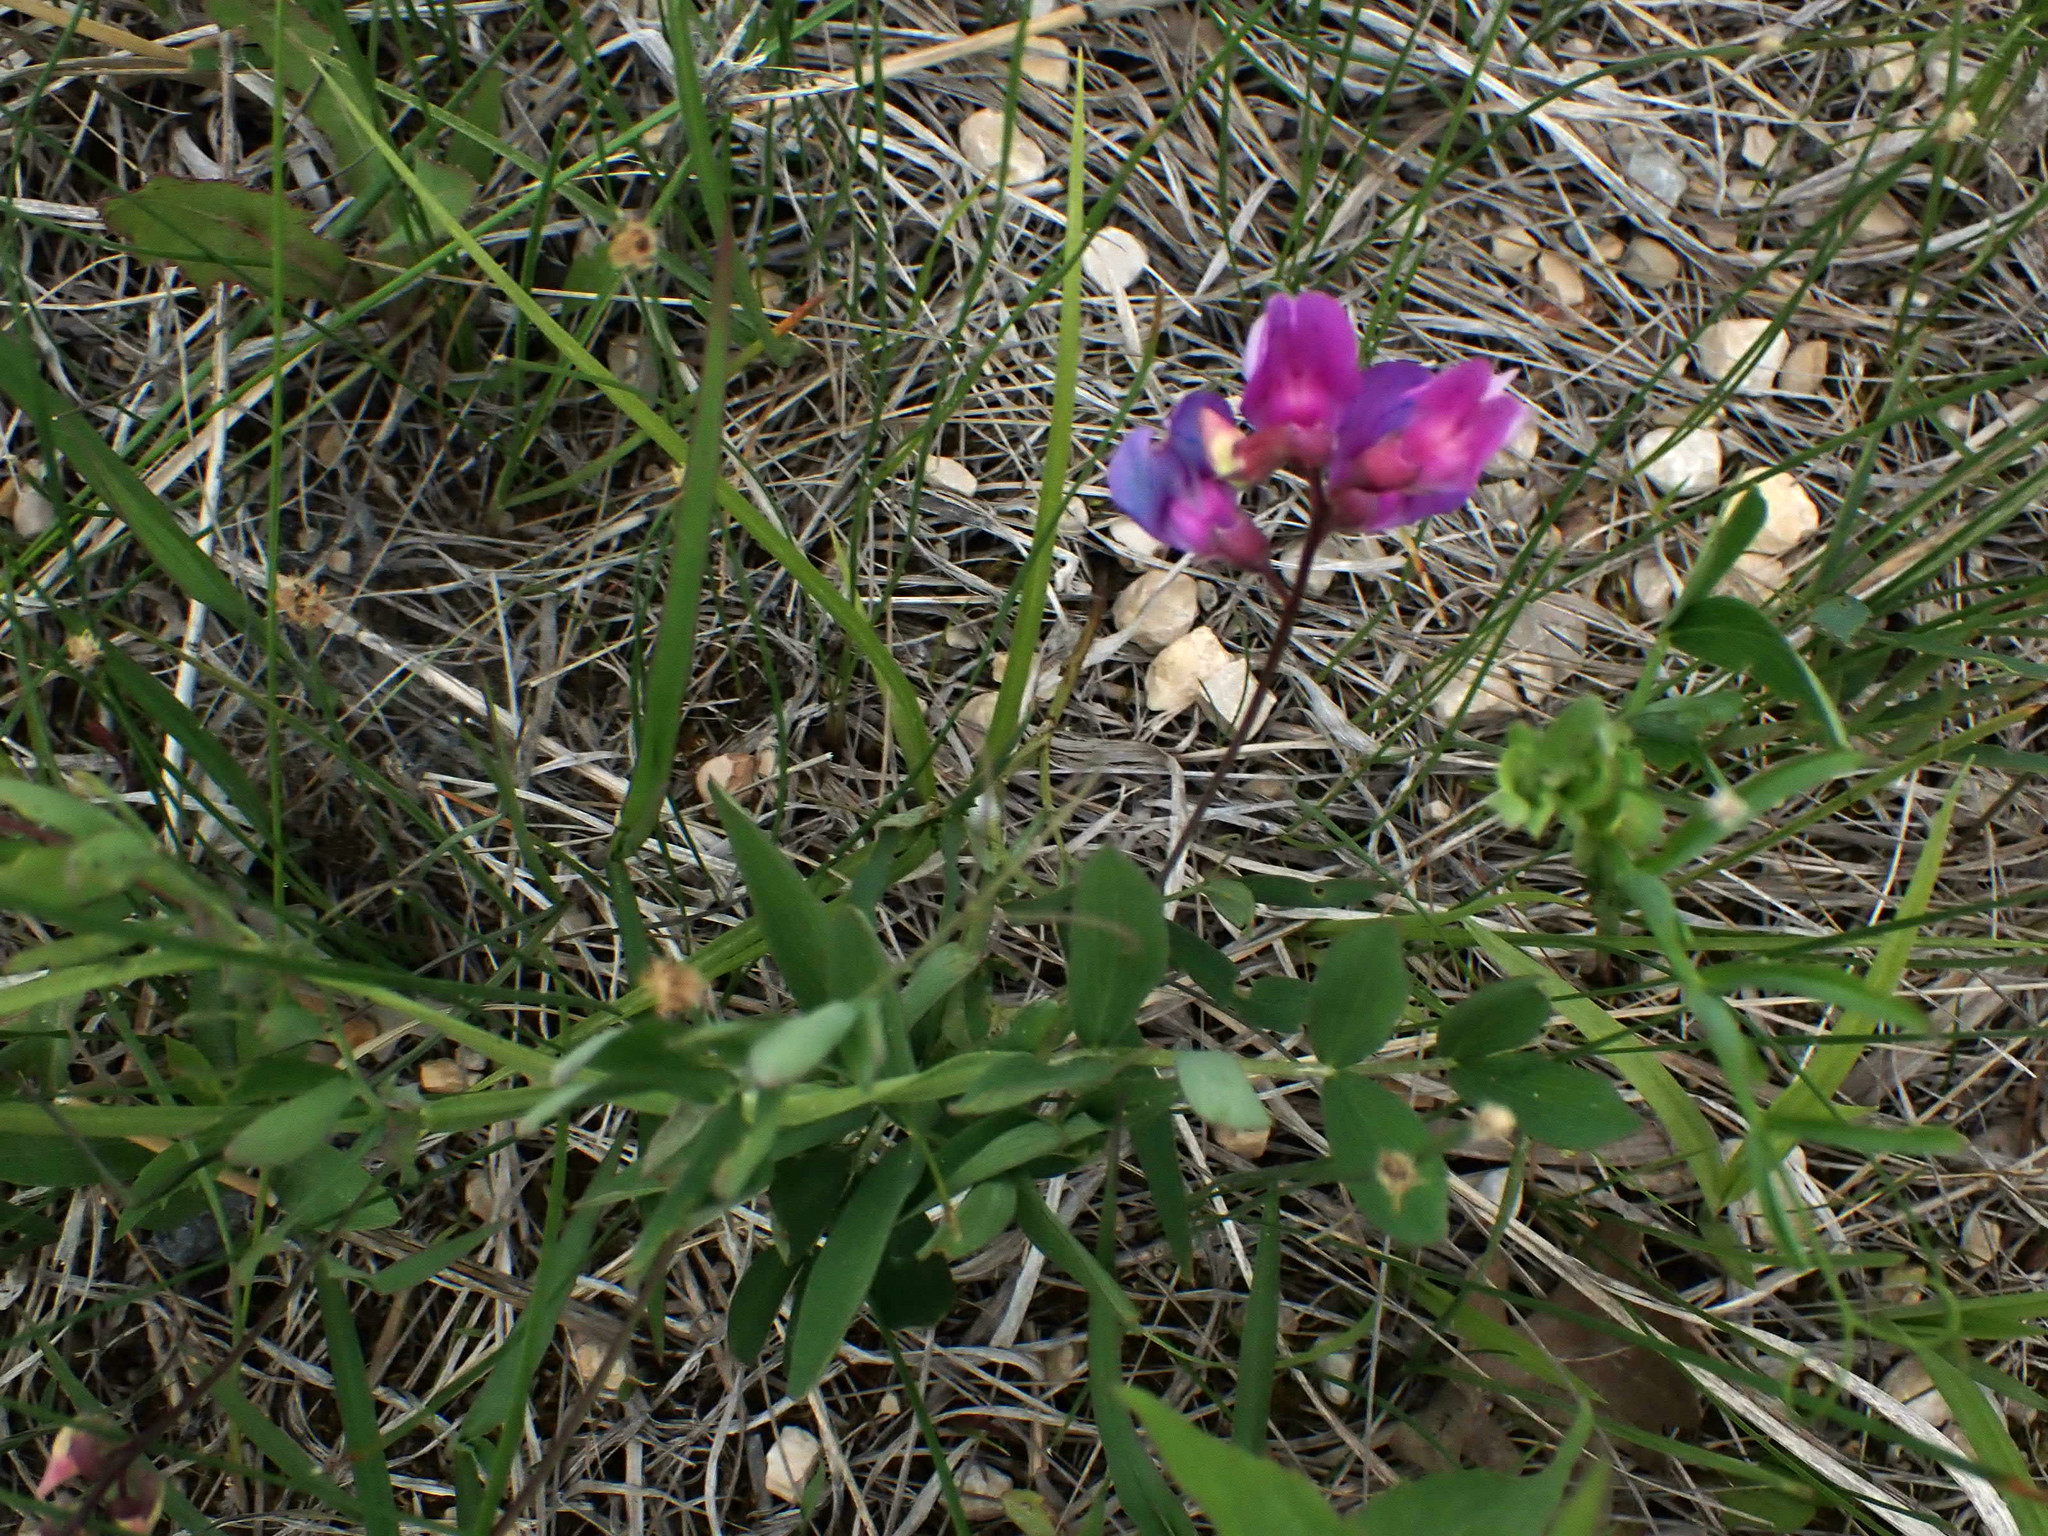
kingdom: Plantae
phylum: Tracheophyta
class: Magnoliopsida
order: Fabales
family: Fabaceae
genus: Vicia
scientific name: Vicia americana
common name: American vetch
